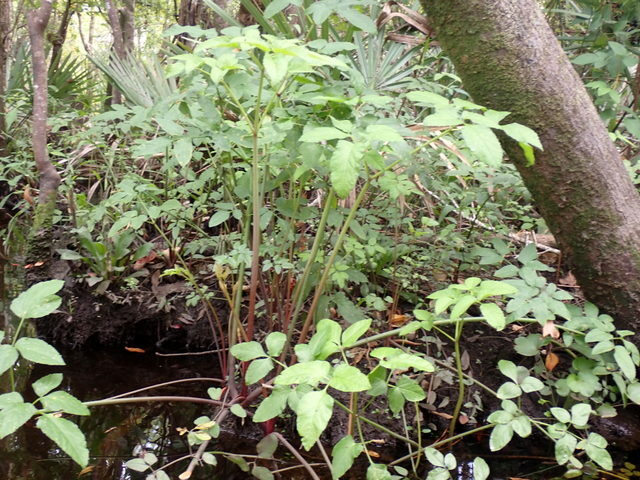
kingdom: Plantae
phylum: Tracheophyta
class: Magnoliopsida
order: Apiales
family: Apiaceae
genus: Cicuta
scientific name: Cicuta maculata
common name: Spotted cowbane
